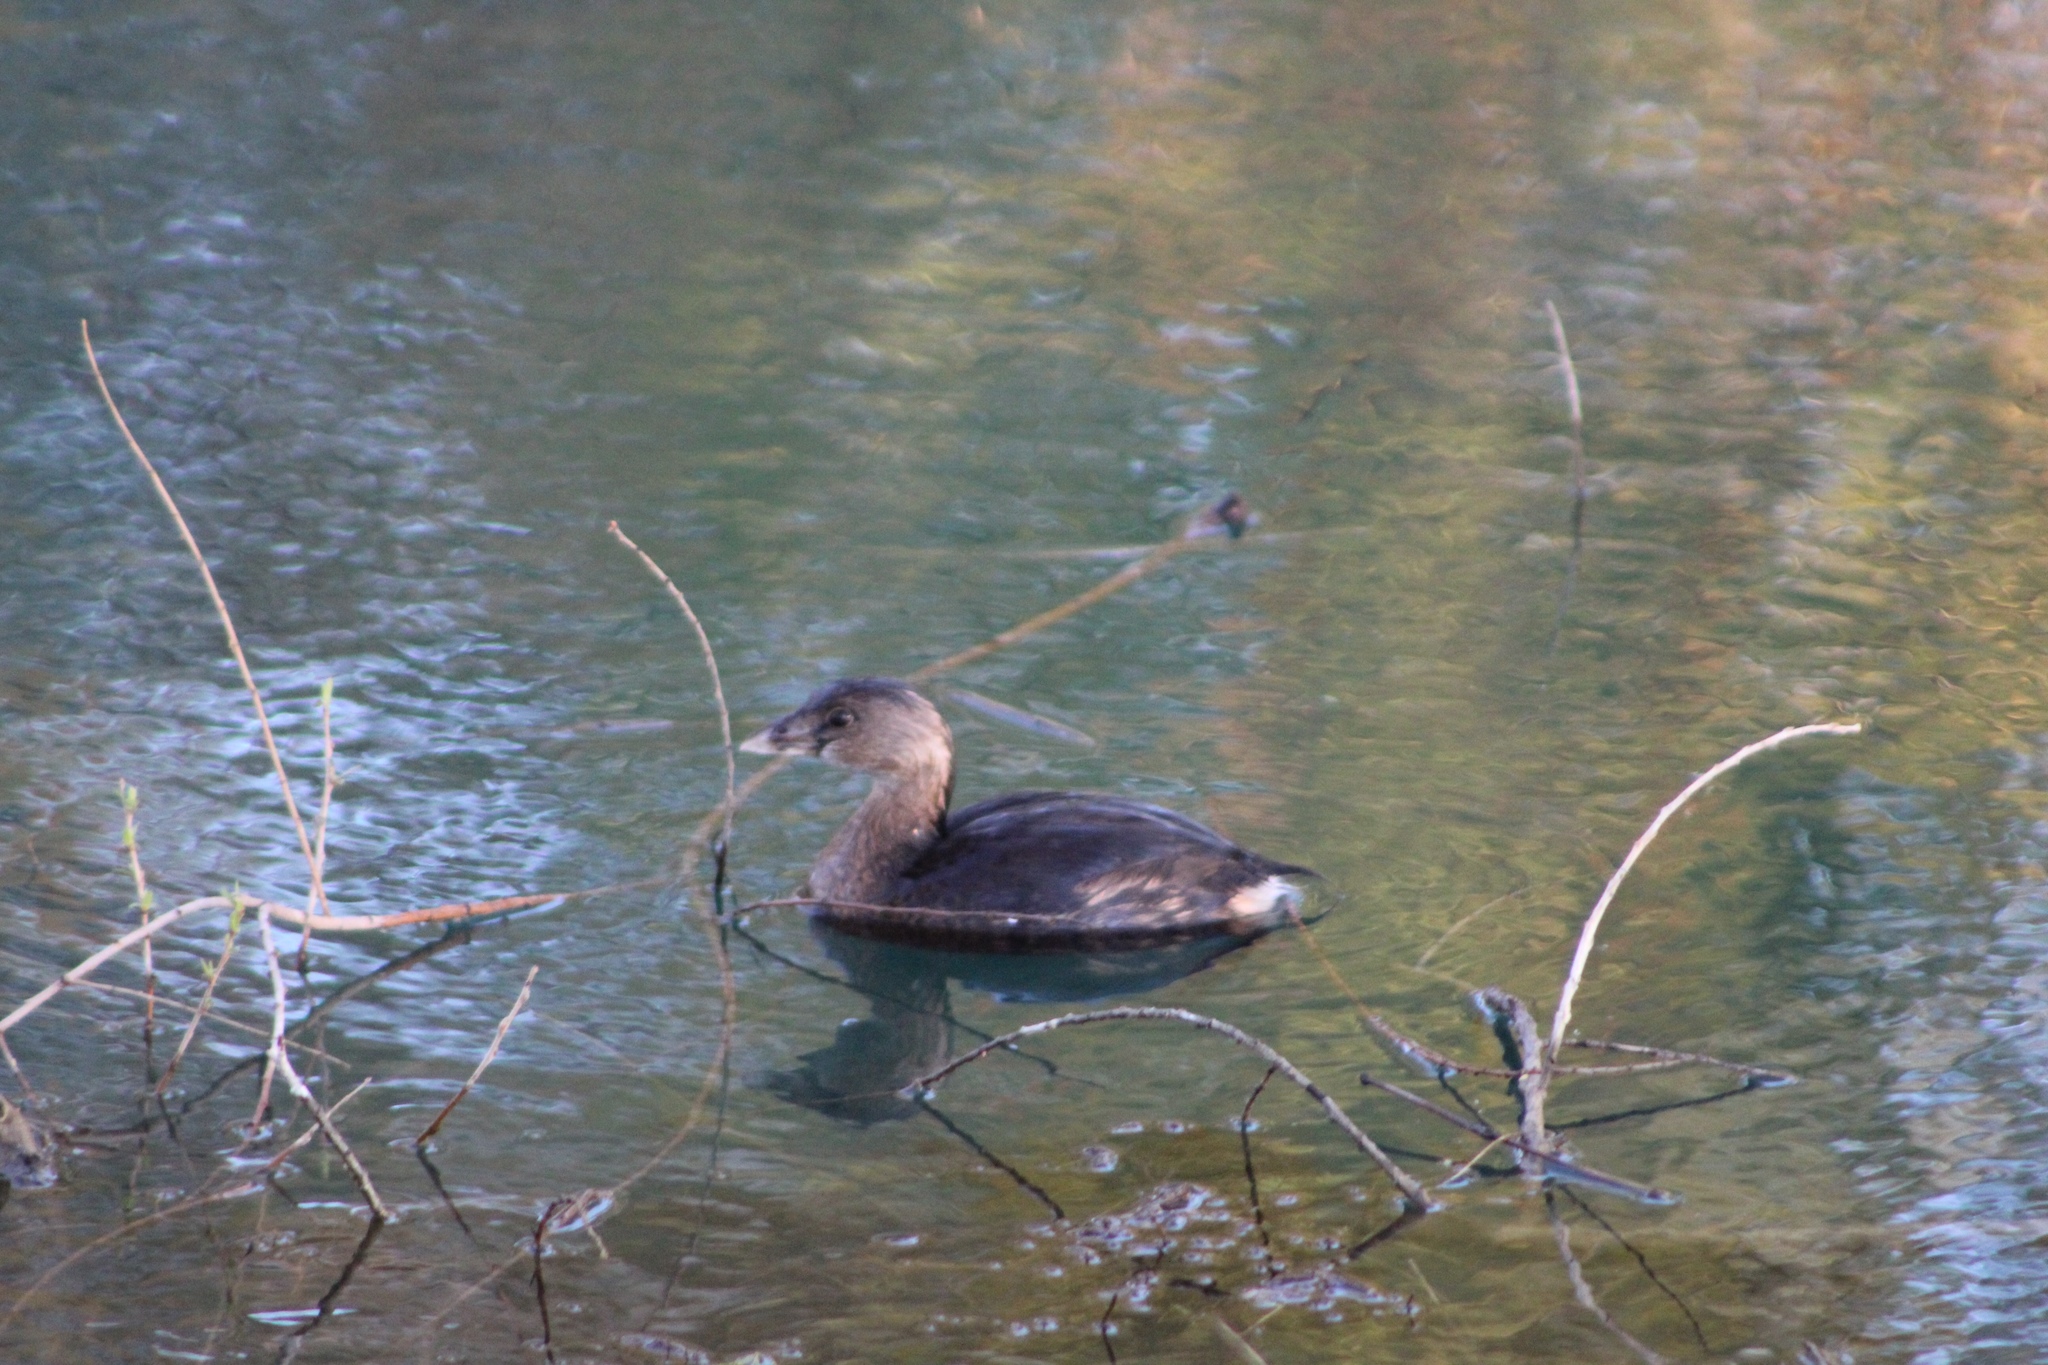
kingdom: Animalia
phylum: Chordata
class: Aves
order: Podicipediformes
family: Podicipedidae
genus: Podilymbus
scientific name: Podilymbus podiceps
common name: Pied-billed grebe
